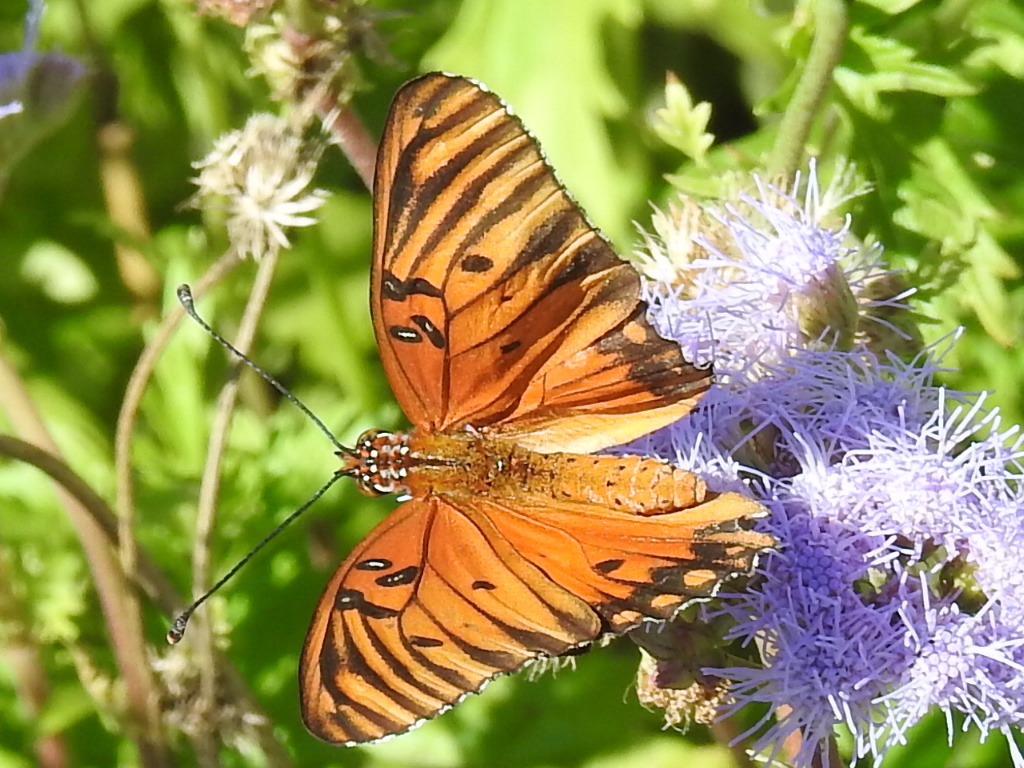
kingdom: Animalia
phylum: Arthropoda
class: Insecta
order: Lepidoptera
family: Nymphalidae
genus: Dione
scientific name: Dione vanillae
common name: Gulf fritillary
